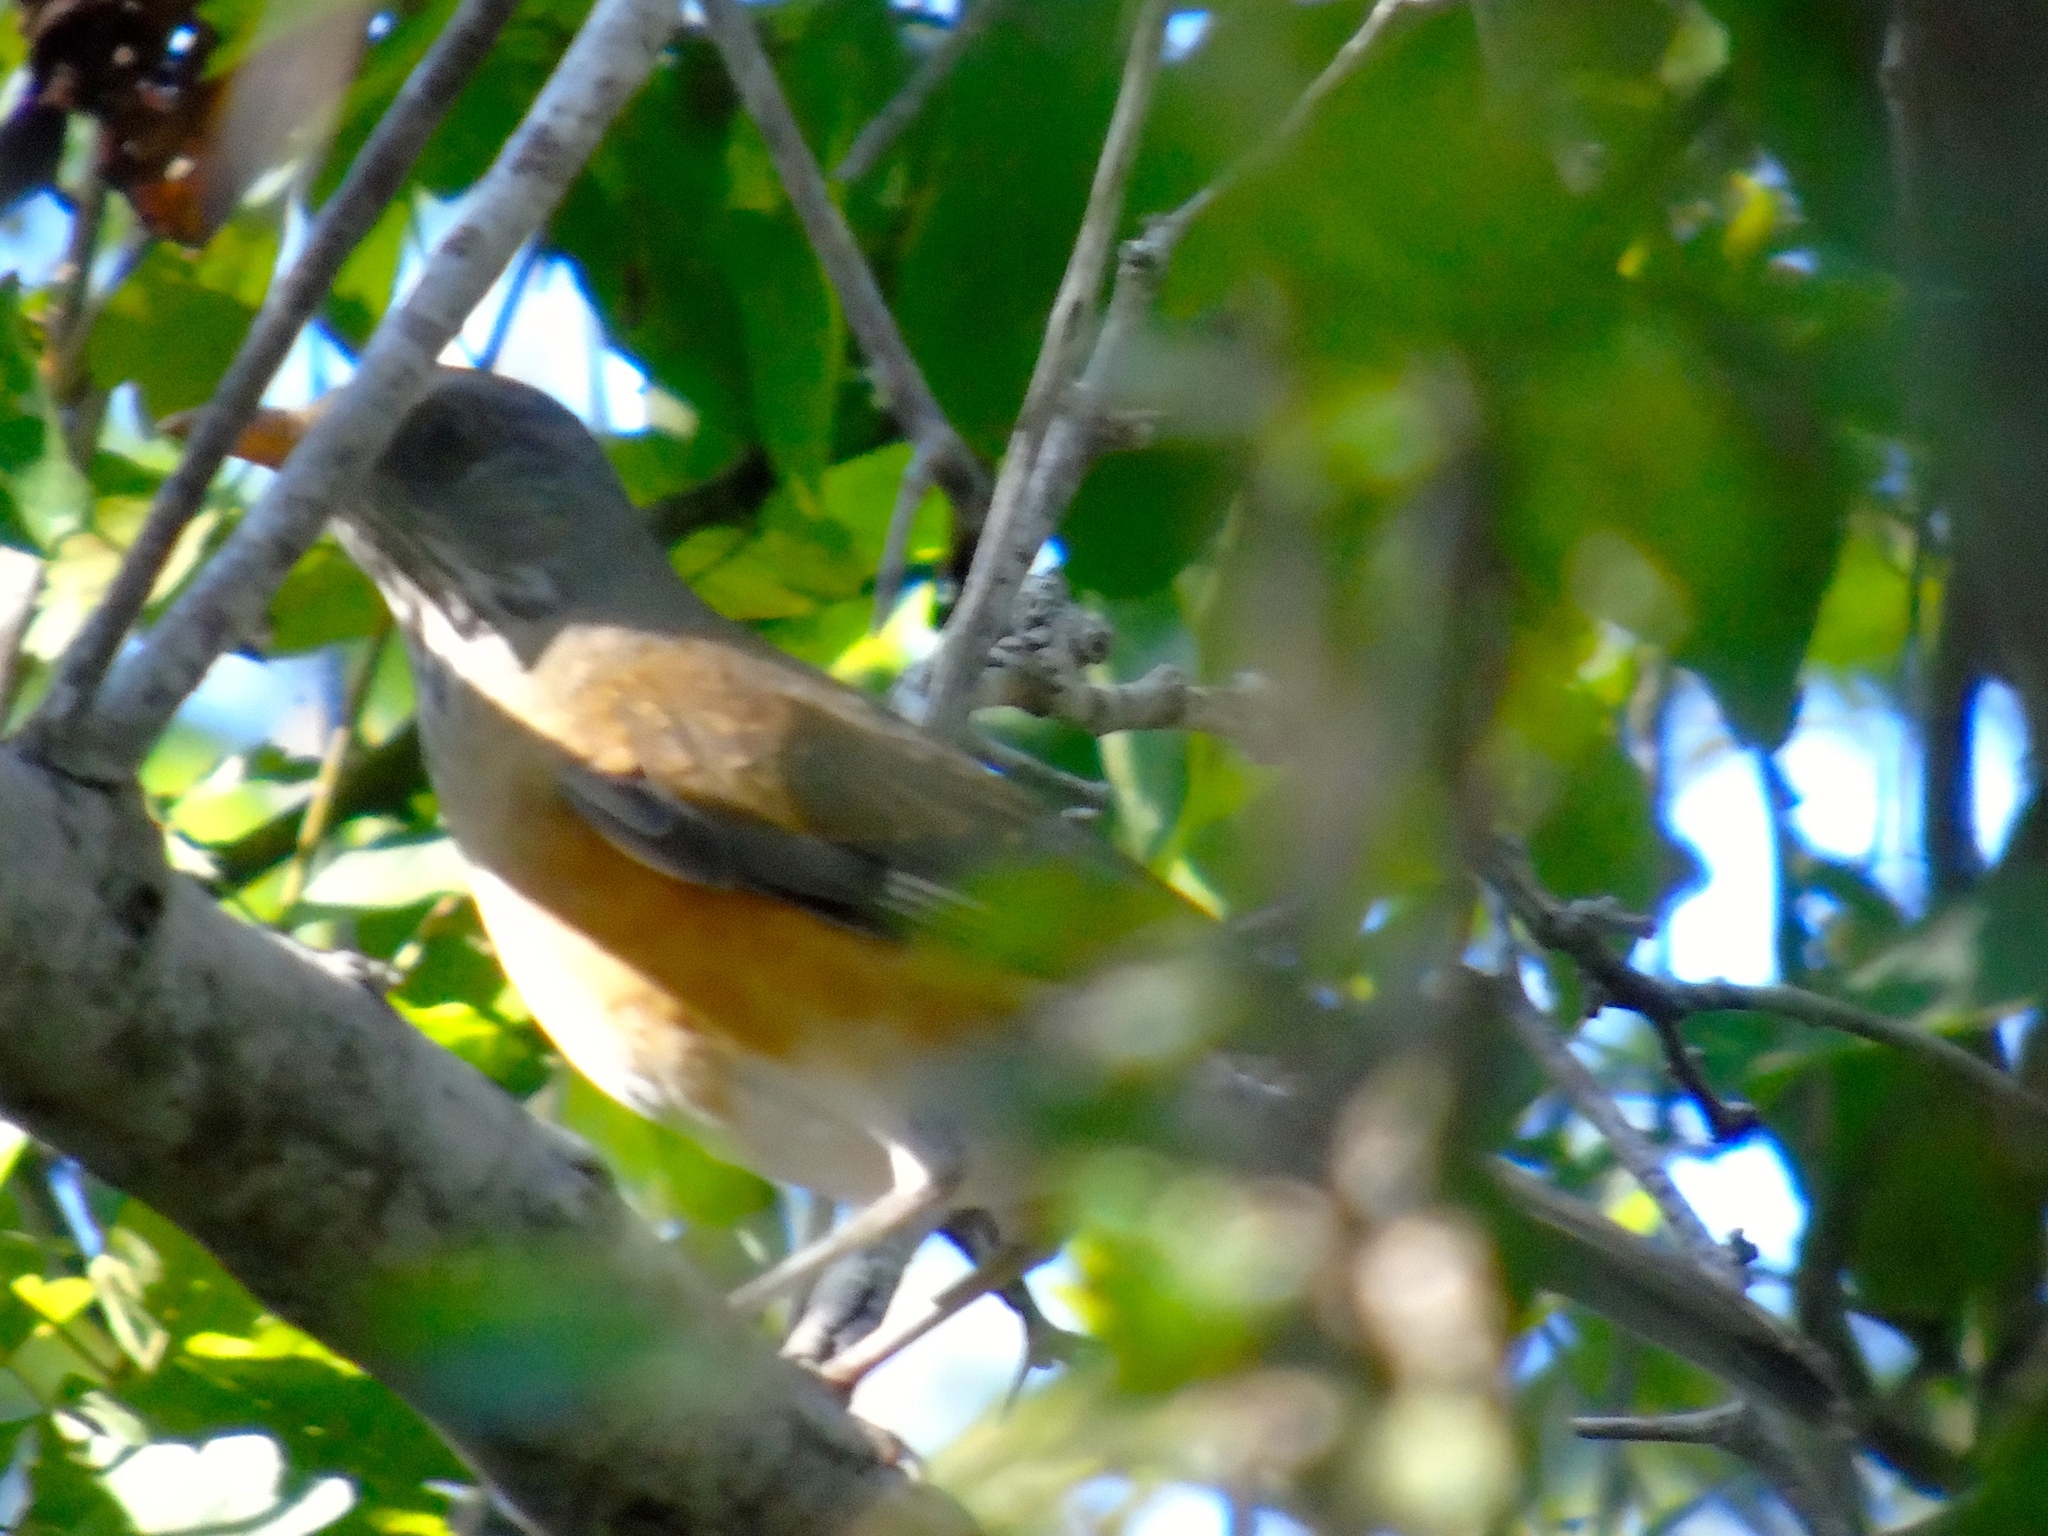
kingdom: Animalia
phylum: Chordata
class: Aves
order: Passeriformes
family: Turdidae
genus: Turdus
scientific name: Turdus rufopalliatus
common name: Rufous-backed robin
